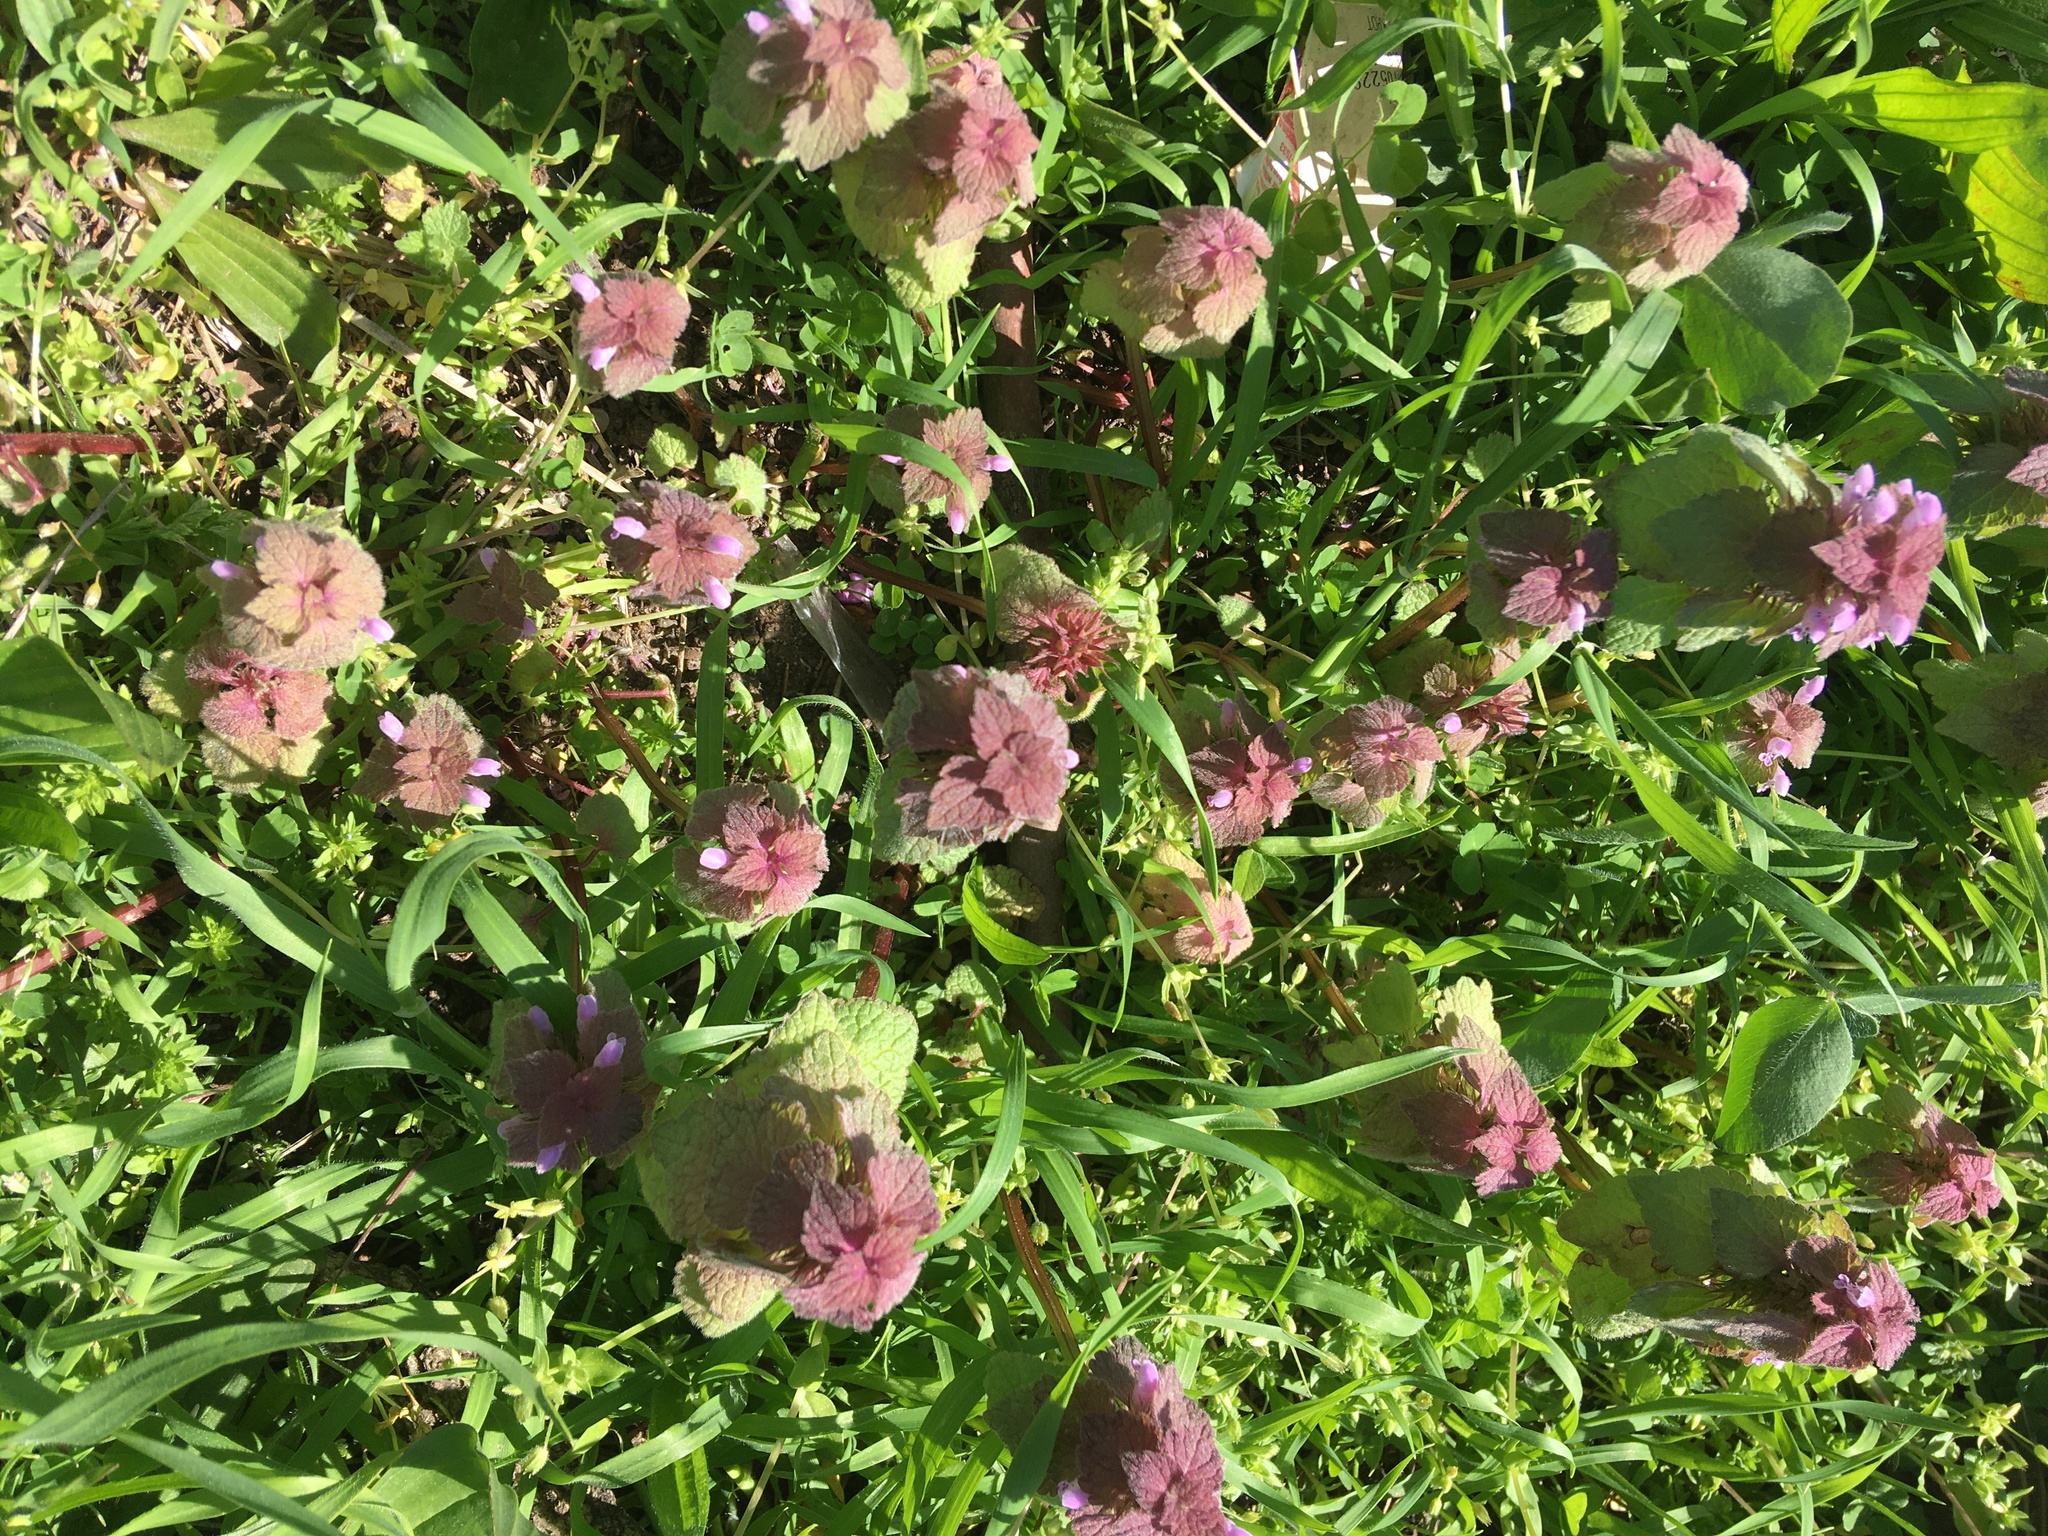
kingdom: Plantae
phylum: Tracheophyta
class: Magnoliopsida
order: Lamiales
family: Lamiaceae
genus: Lamium
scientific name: Lamium purpureum
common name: Red dead-nettle
